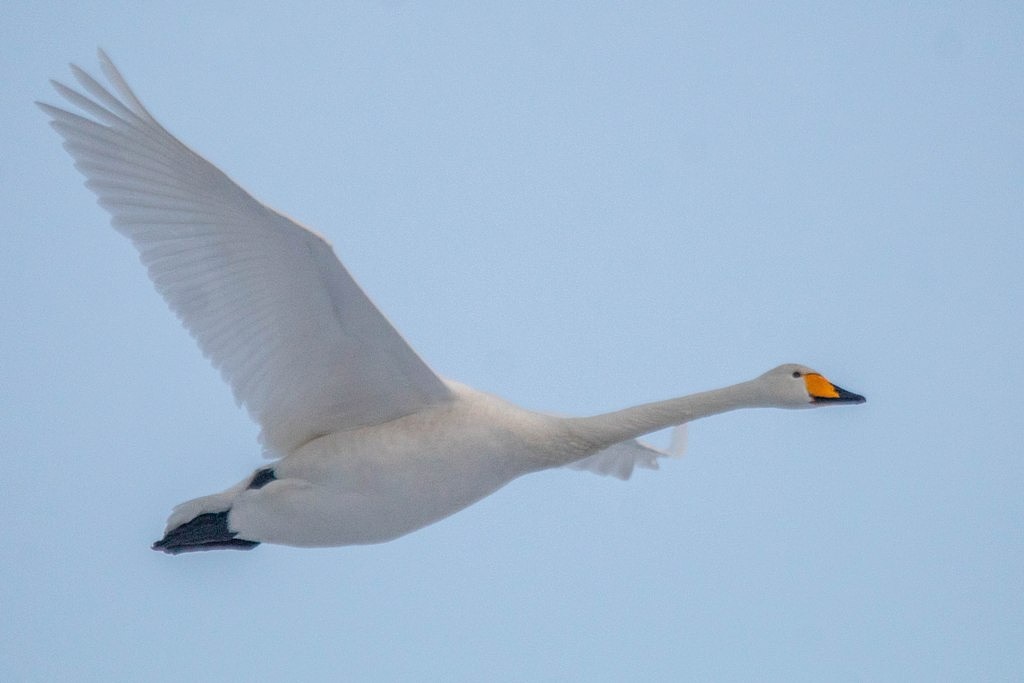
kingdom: Animalia
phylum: Chordata
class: Aves
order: Anseriformes
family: Anatidae
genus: Cygnus
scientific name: Cygnus cygnus
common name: Whooper swan
